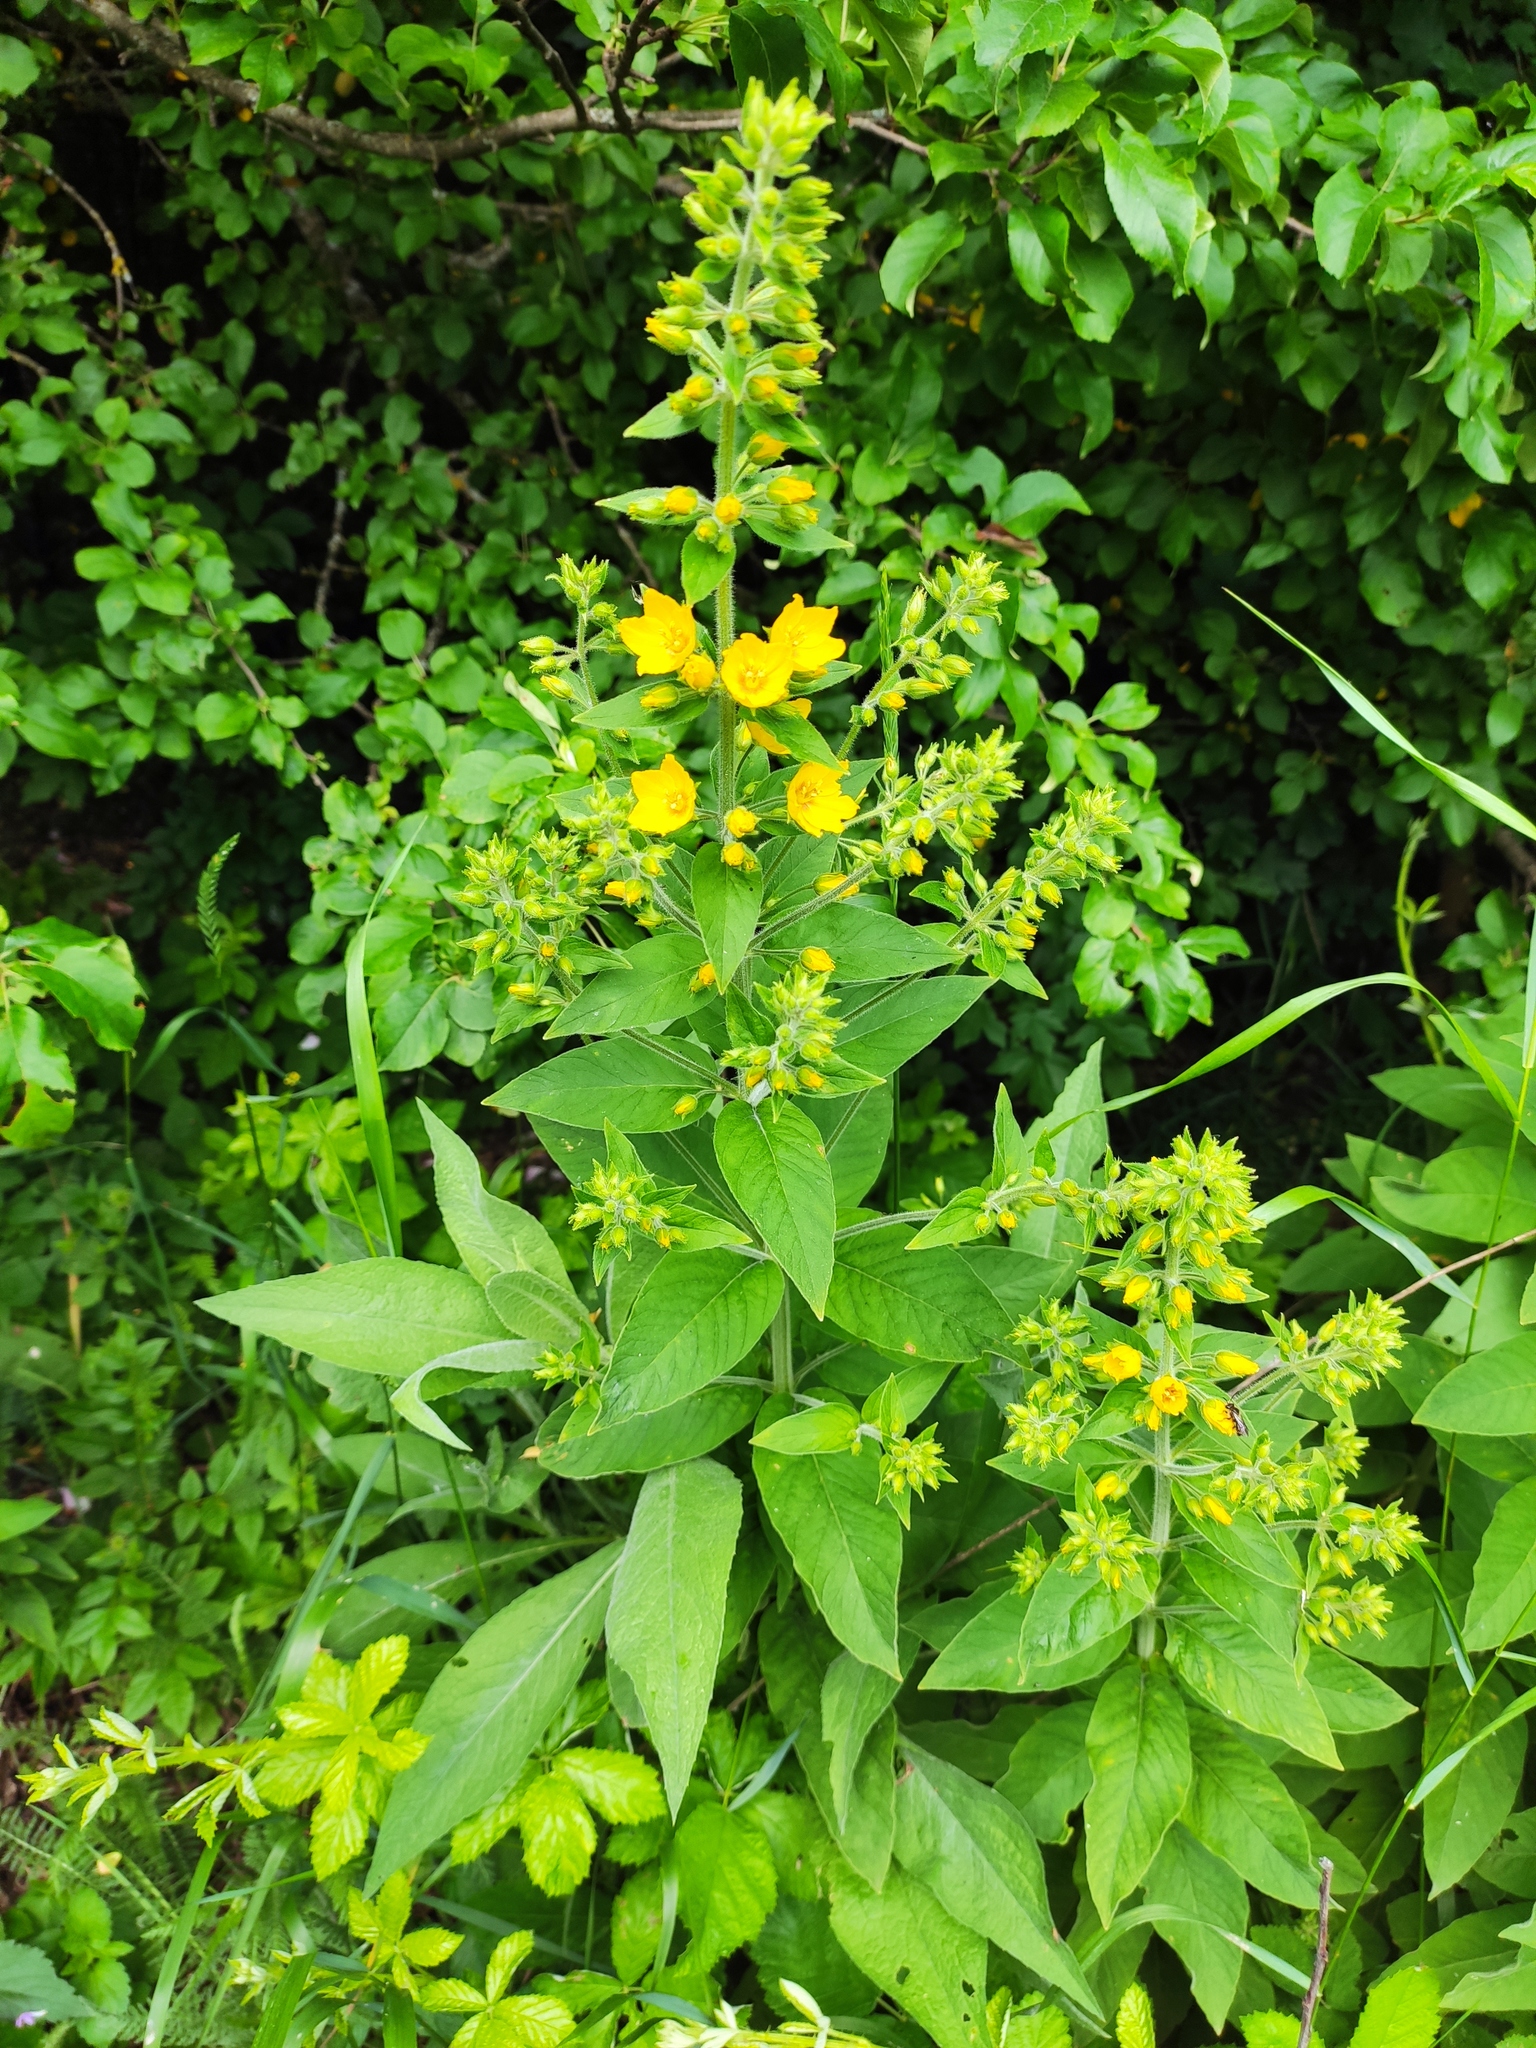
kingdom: Plantae
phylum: Tracheophyta
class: Magnoliopsida
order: Ericales
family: Primulaceae
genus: Lysimachia
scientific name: Lysimachia verticillaris
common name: Yellow loosestrife
